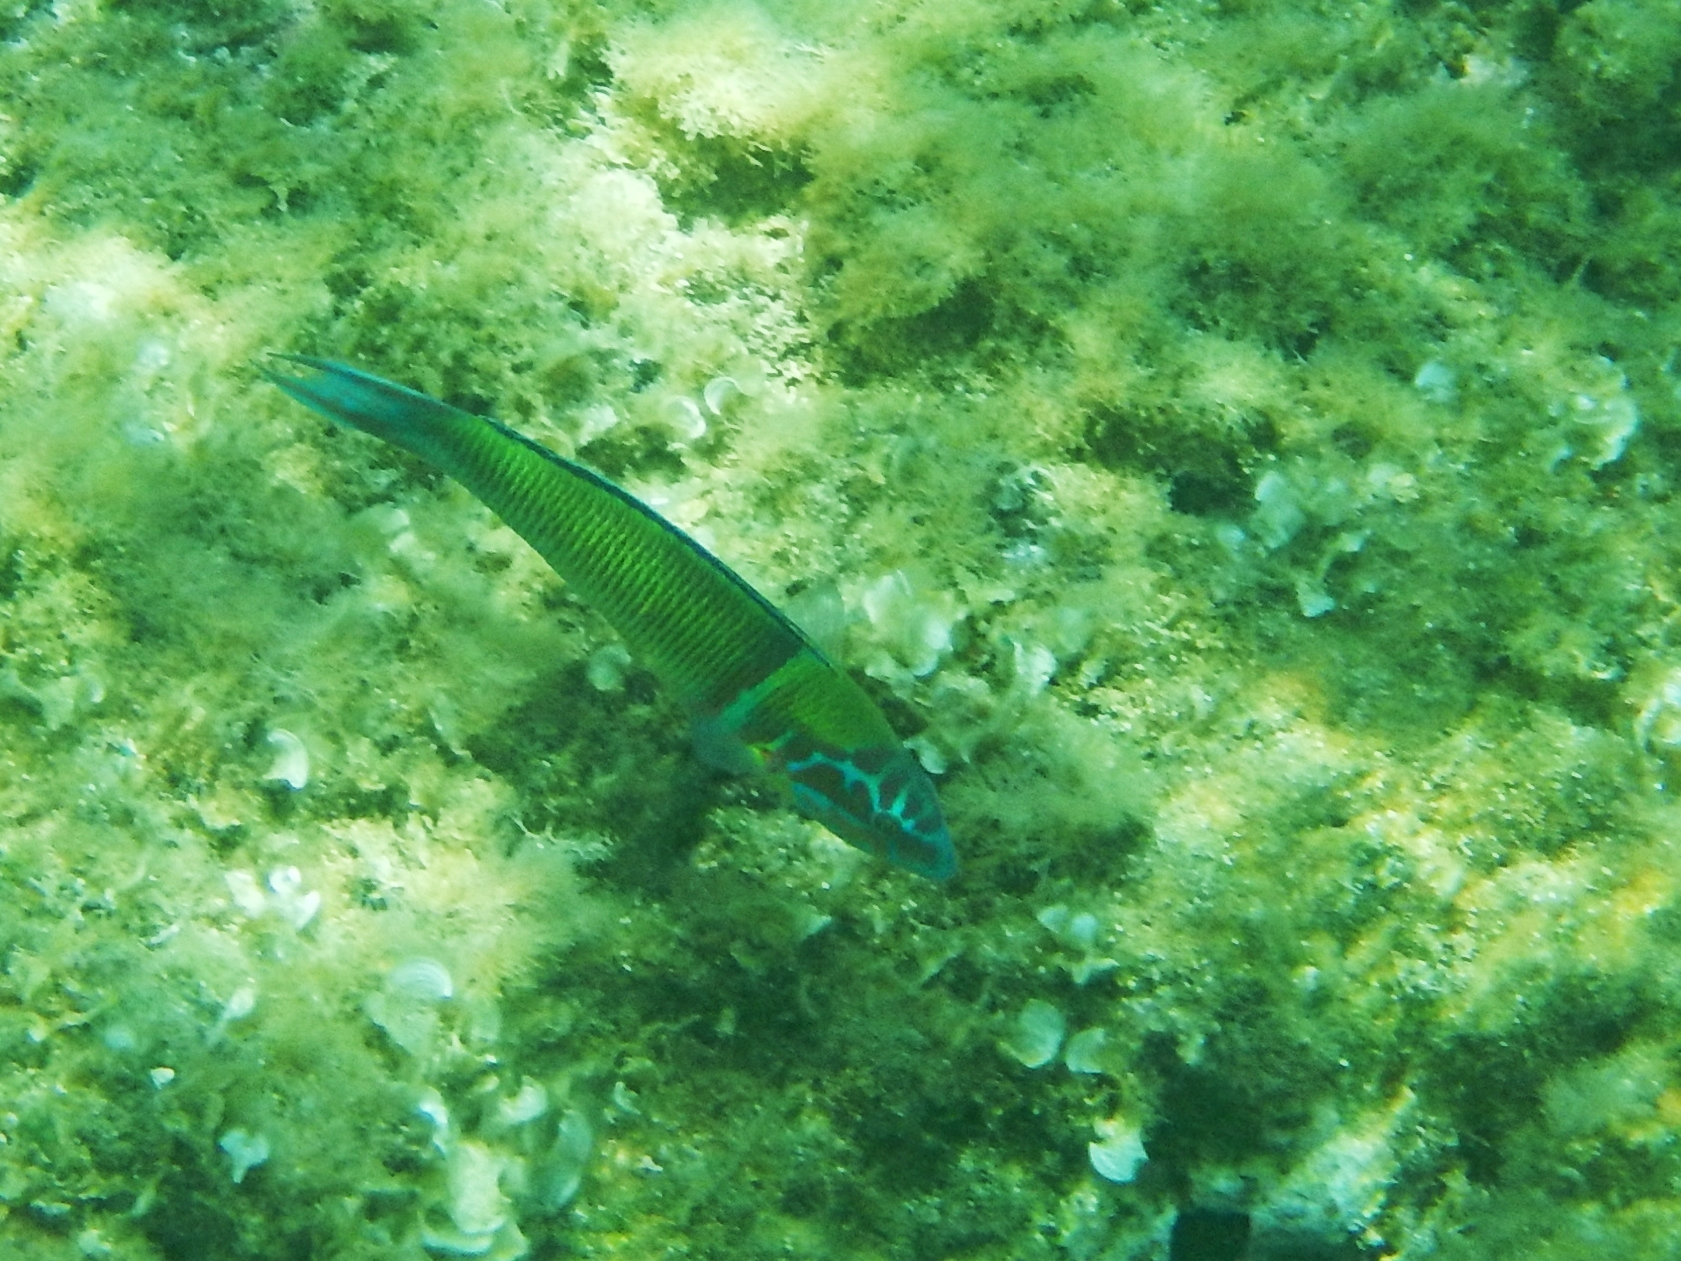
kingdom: Animalia
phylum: Chordata
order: Perciformes
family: Labridae
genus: Thalassoma
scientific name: Thalassoma pavo
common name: Ornate wrasse
